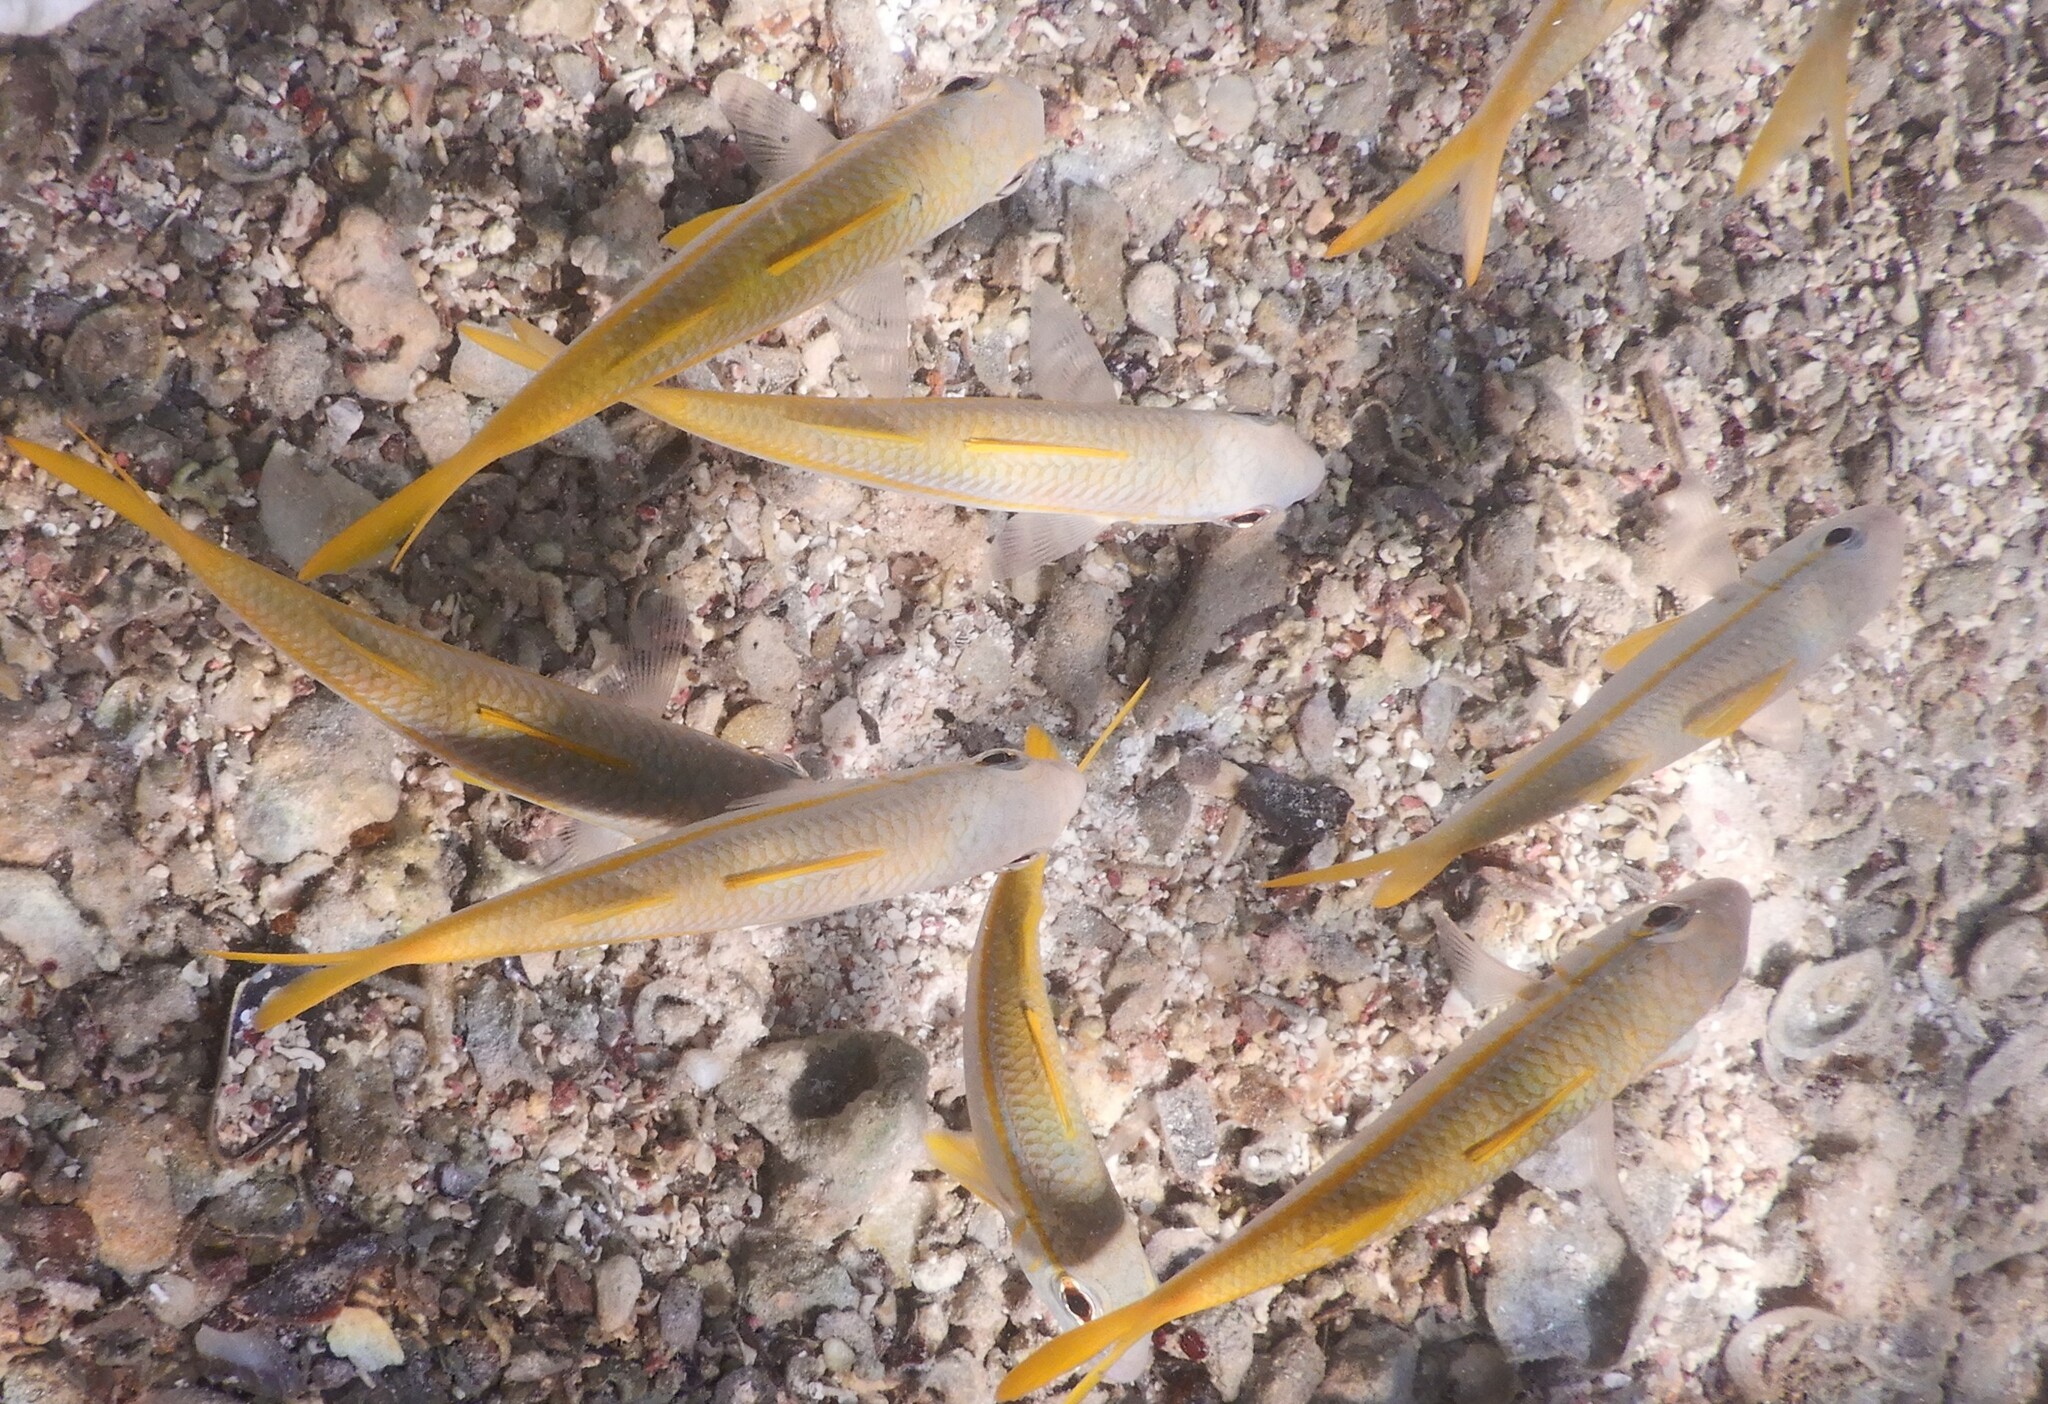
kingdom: Animalia
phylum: Chordata
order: Perciformes
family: Mullidae
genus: Mulloidichthys
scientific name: Mulloidichthys vanicolensis
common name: Yellowfin goatfish
